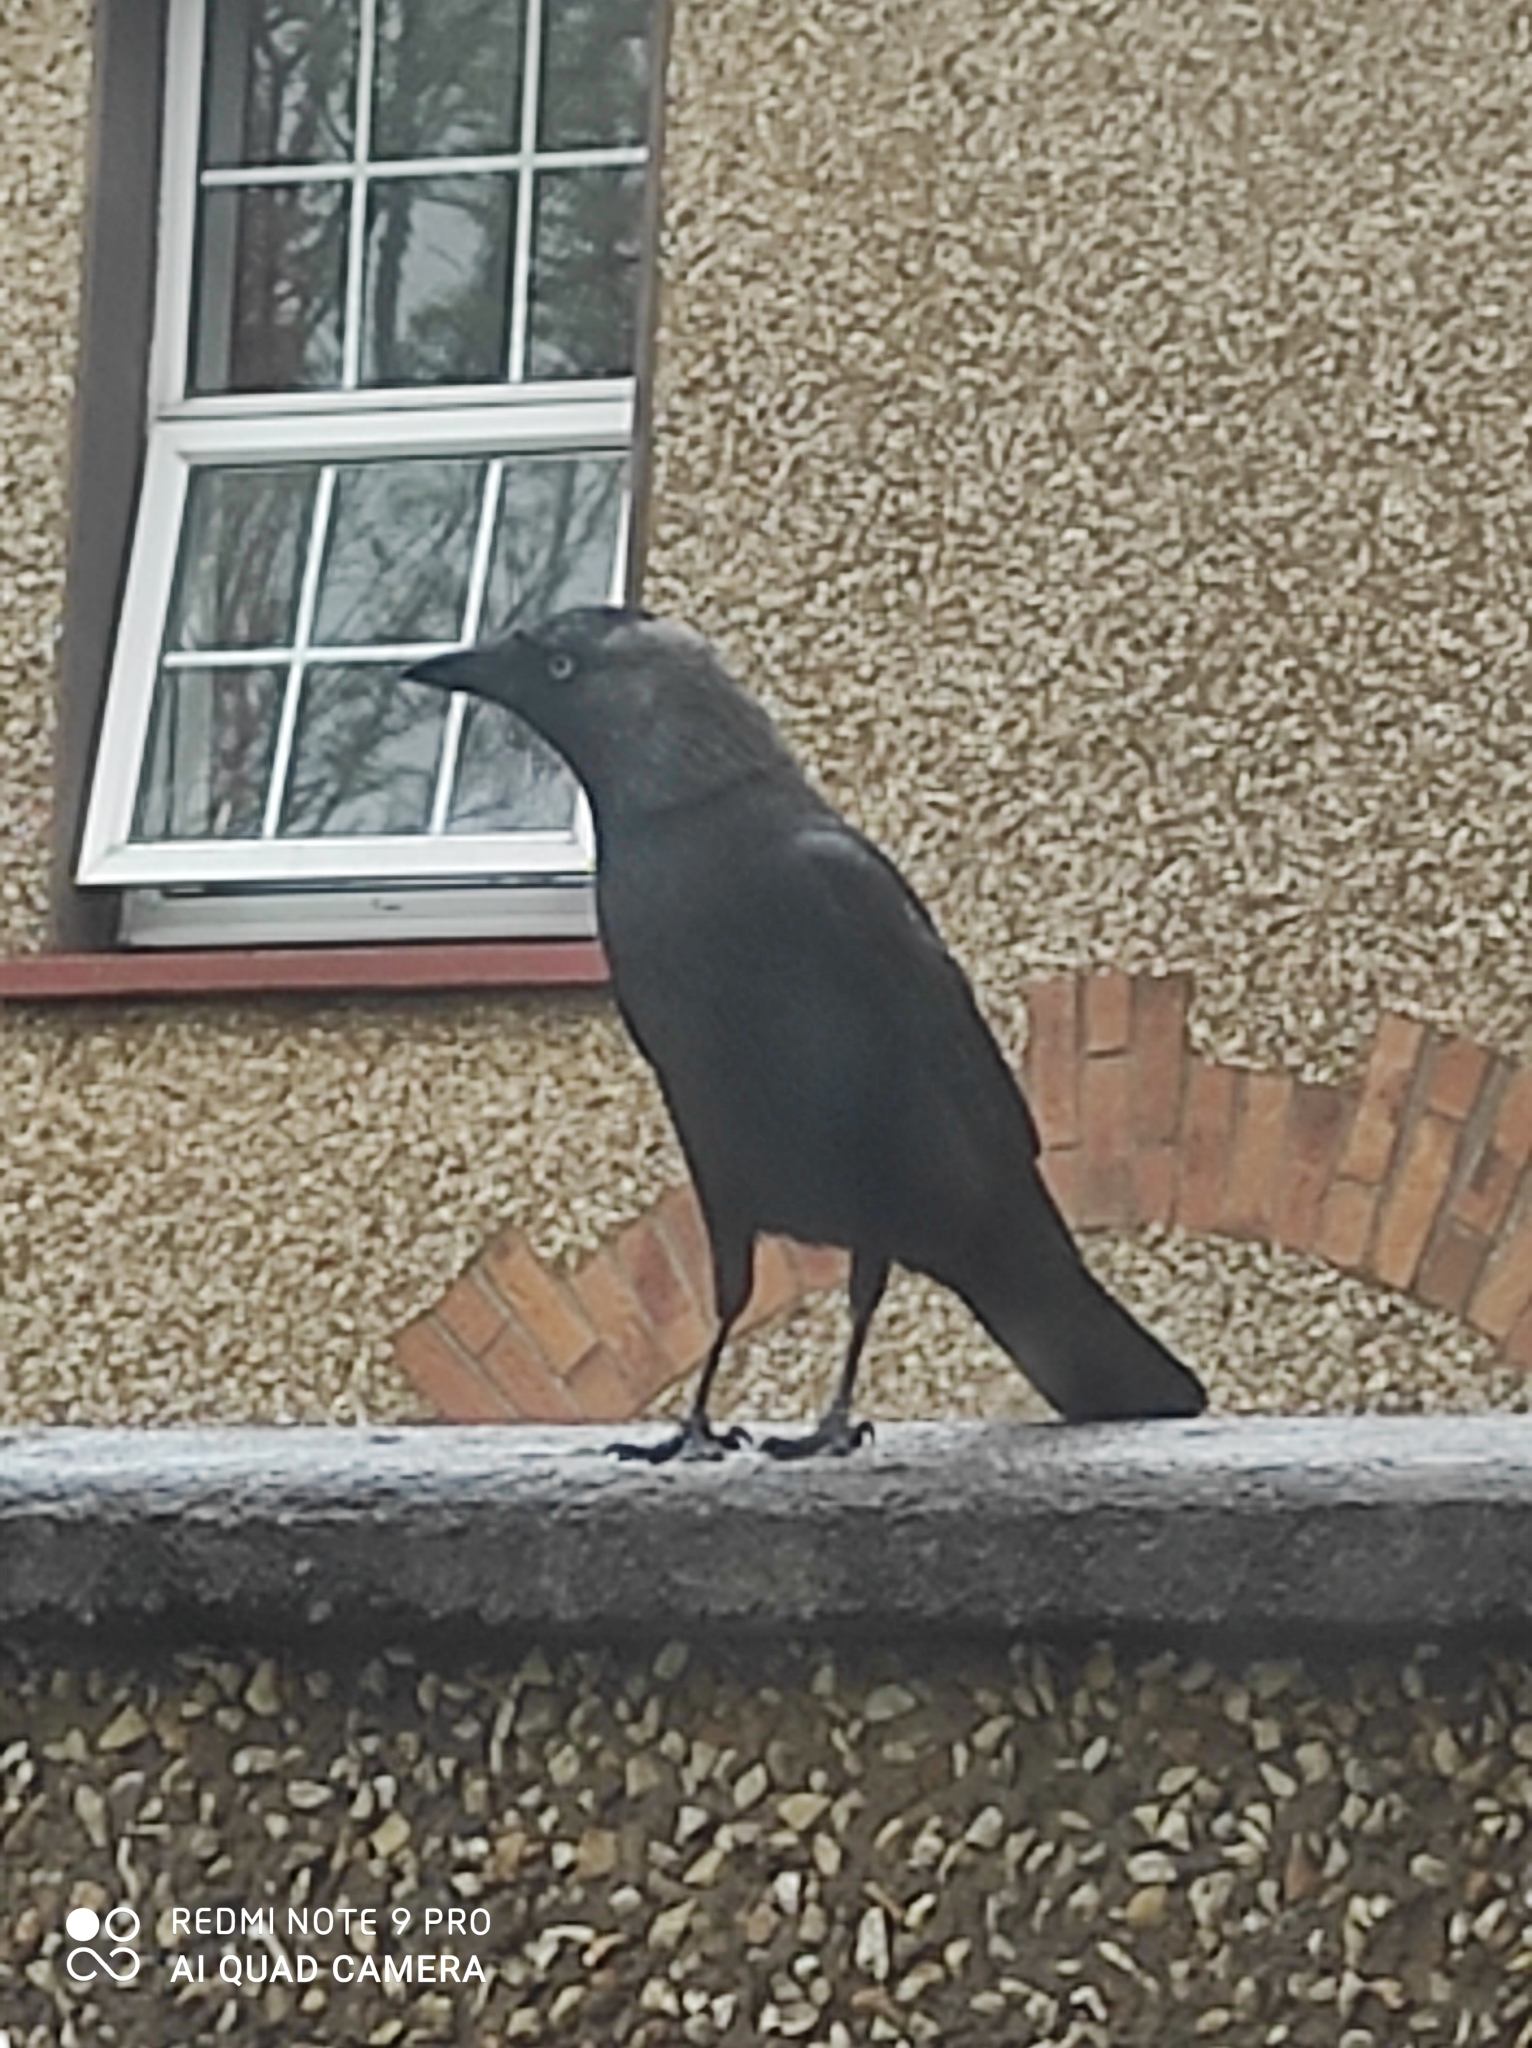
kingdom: Animalia
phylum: Chordata
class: Aves
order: Passeriformes
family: Corvidae
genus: Coloeus
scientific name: Coloeus monedula
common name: Western jackdaw
